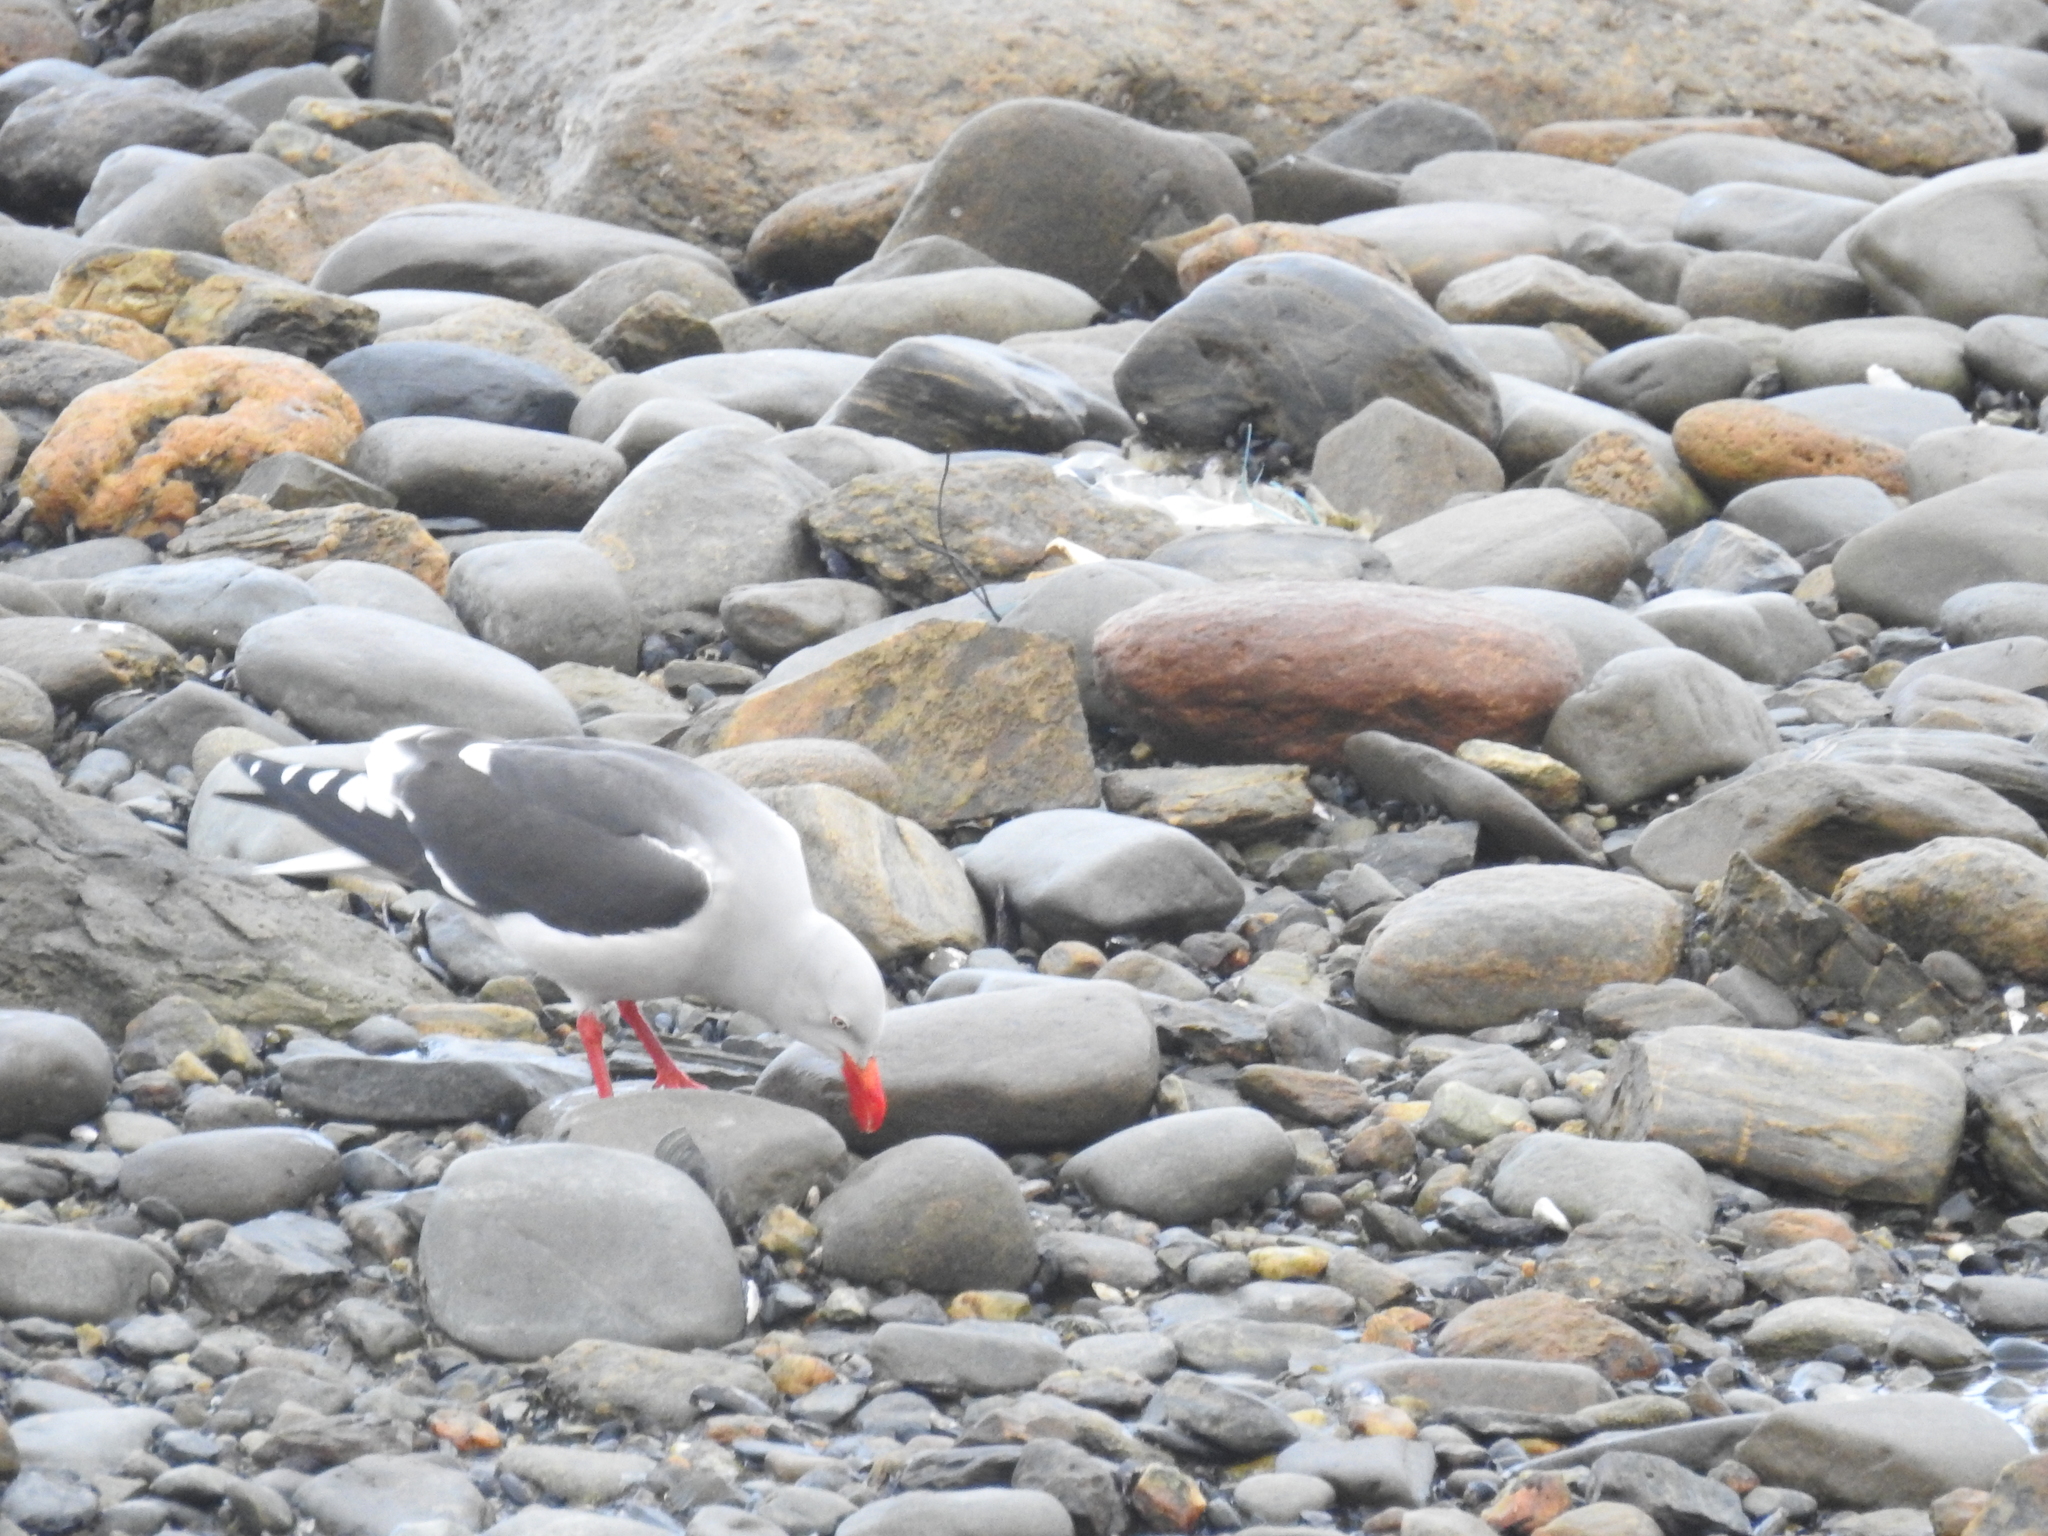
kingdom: Animalia
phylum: Chordata
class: Aves
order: Charadriiformes
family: Laridae
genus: Leucophaeus
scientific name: Leucophaeus scoresbii
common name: Dolphin gull
